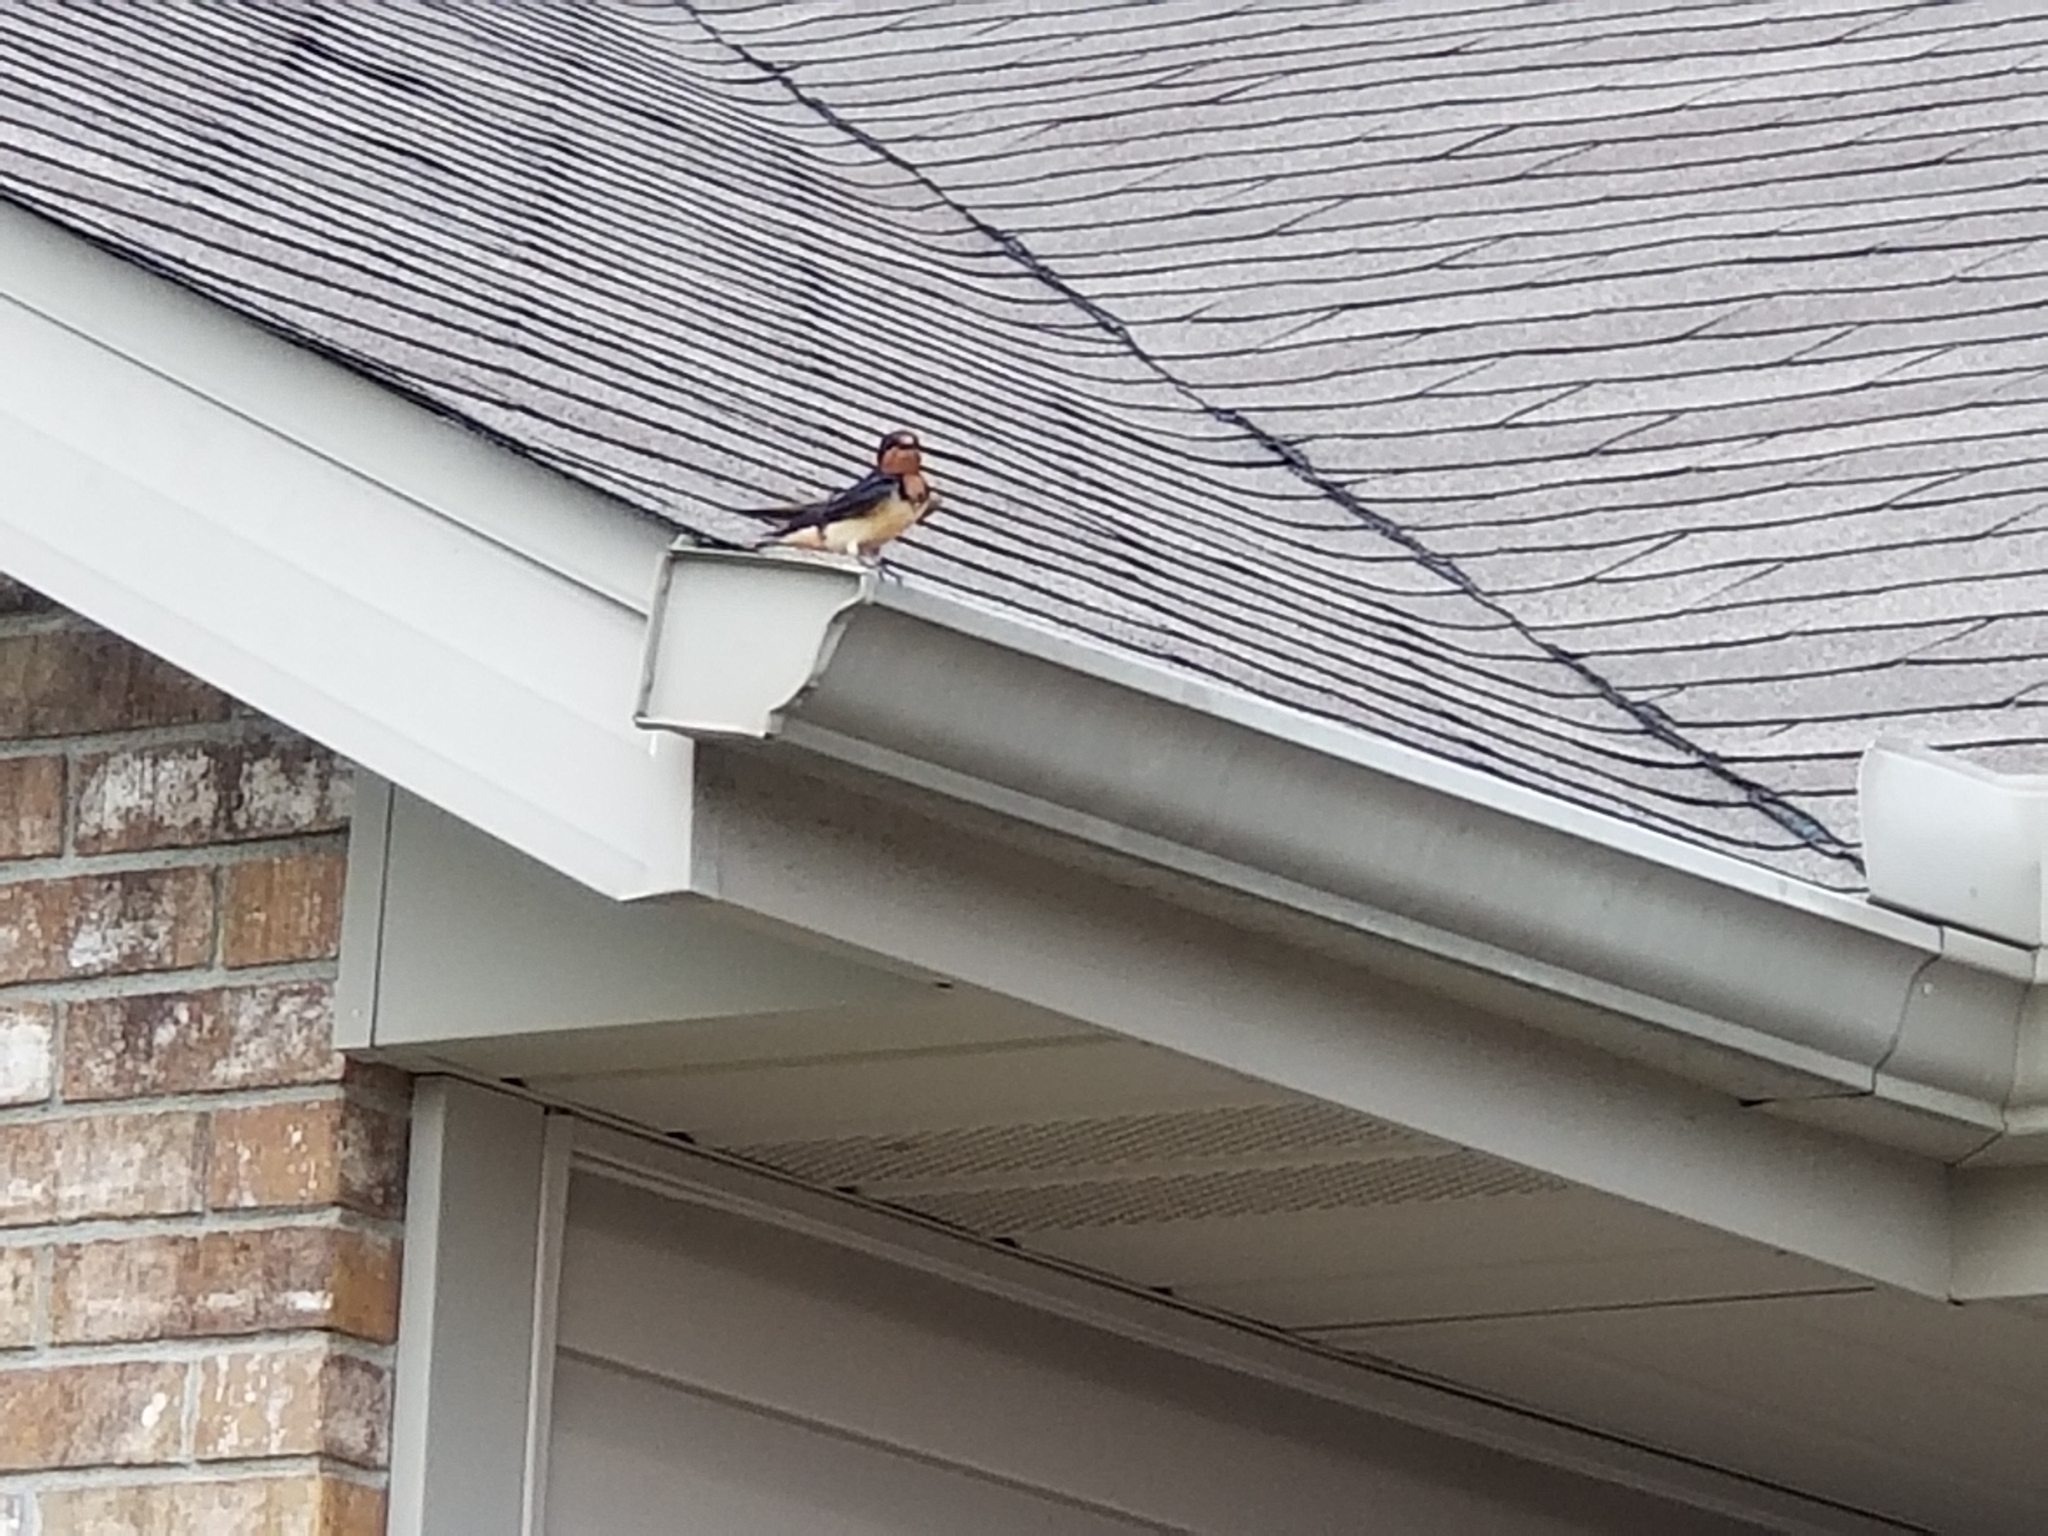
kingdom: Animalia
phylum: Chordata
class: Aves
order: Passeriformes
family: Hirundinidae
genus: Hirundo
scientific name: Hirundo rustica
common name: Barn swallow
